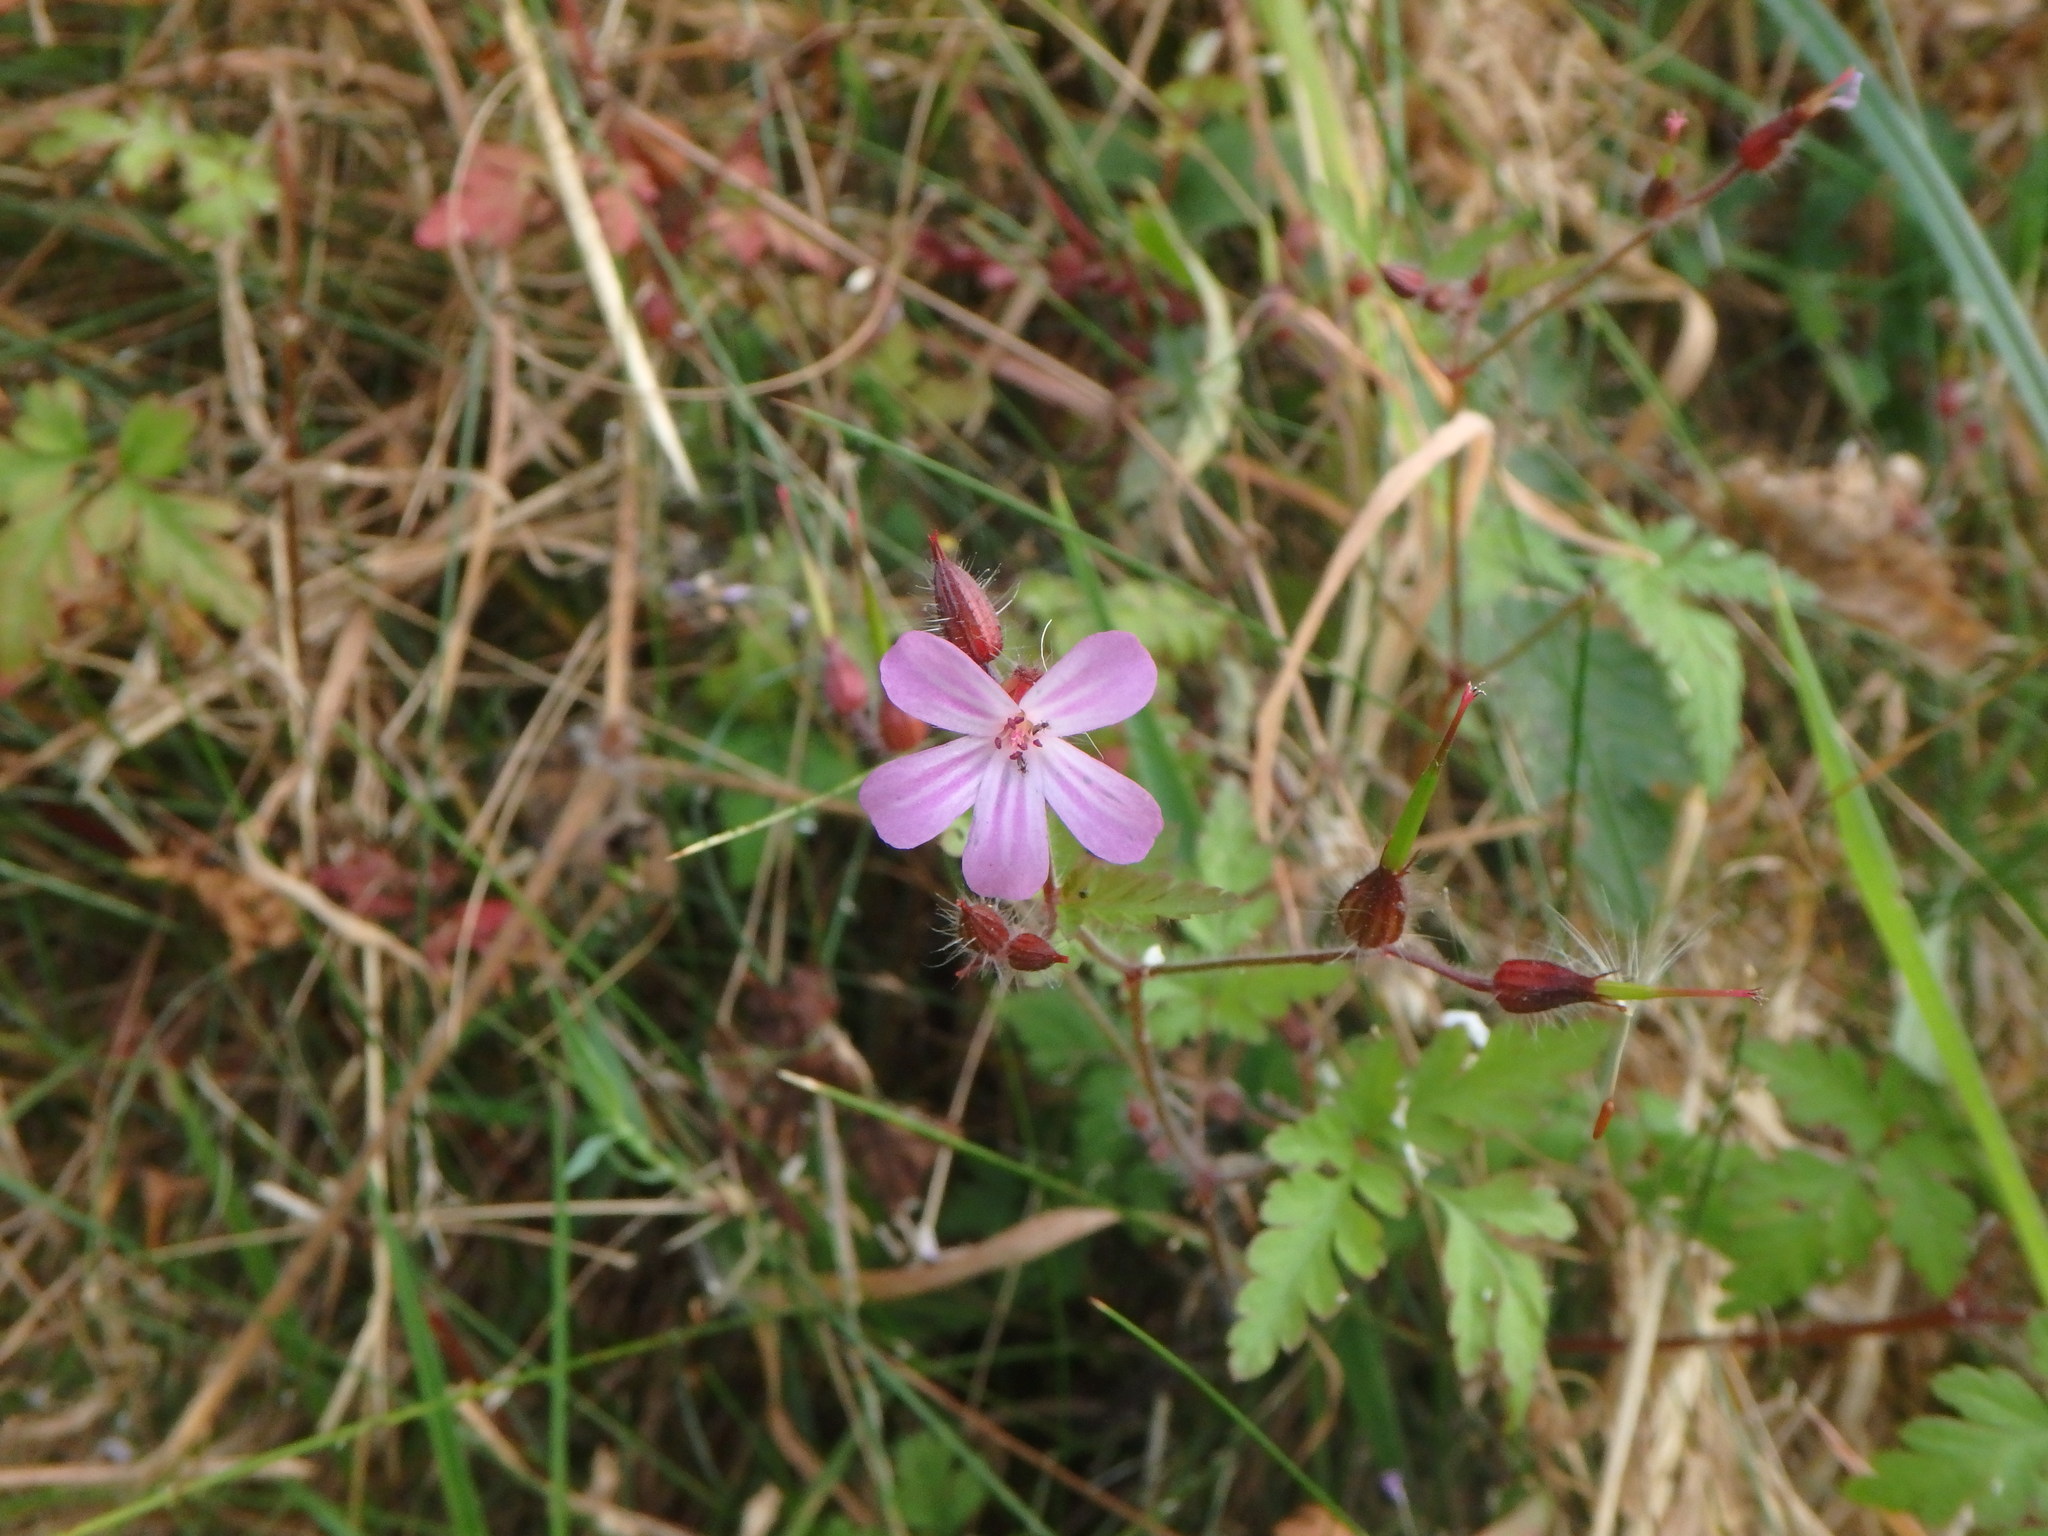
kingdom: Plantae
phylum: Tracheophyta
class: Magnoliopsida
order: Geraniales
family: Geraniaceae
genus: Geranium
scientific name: Geranium robertianum
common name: Herb-robert
